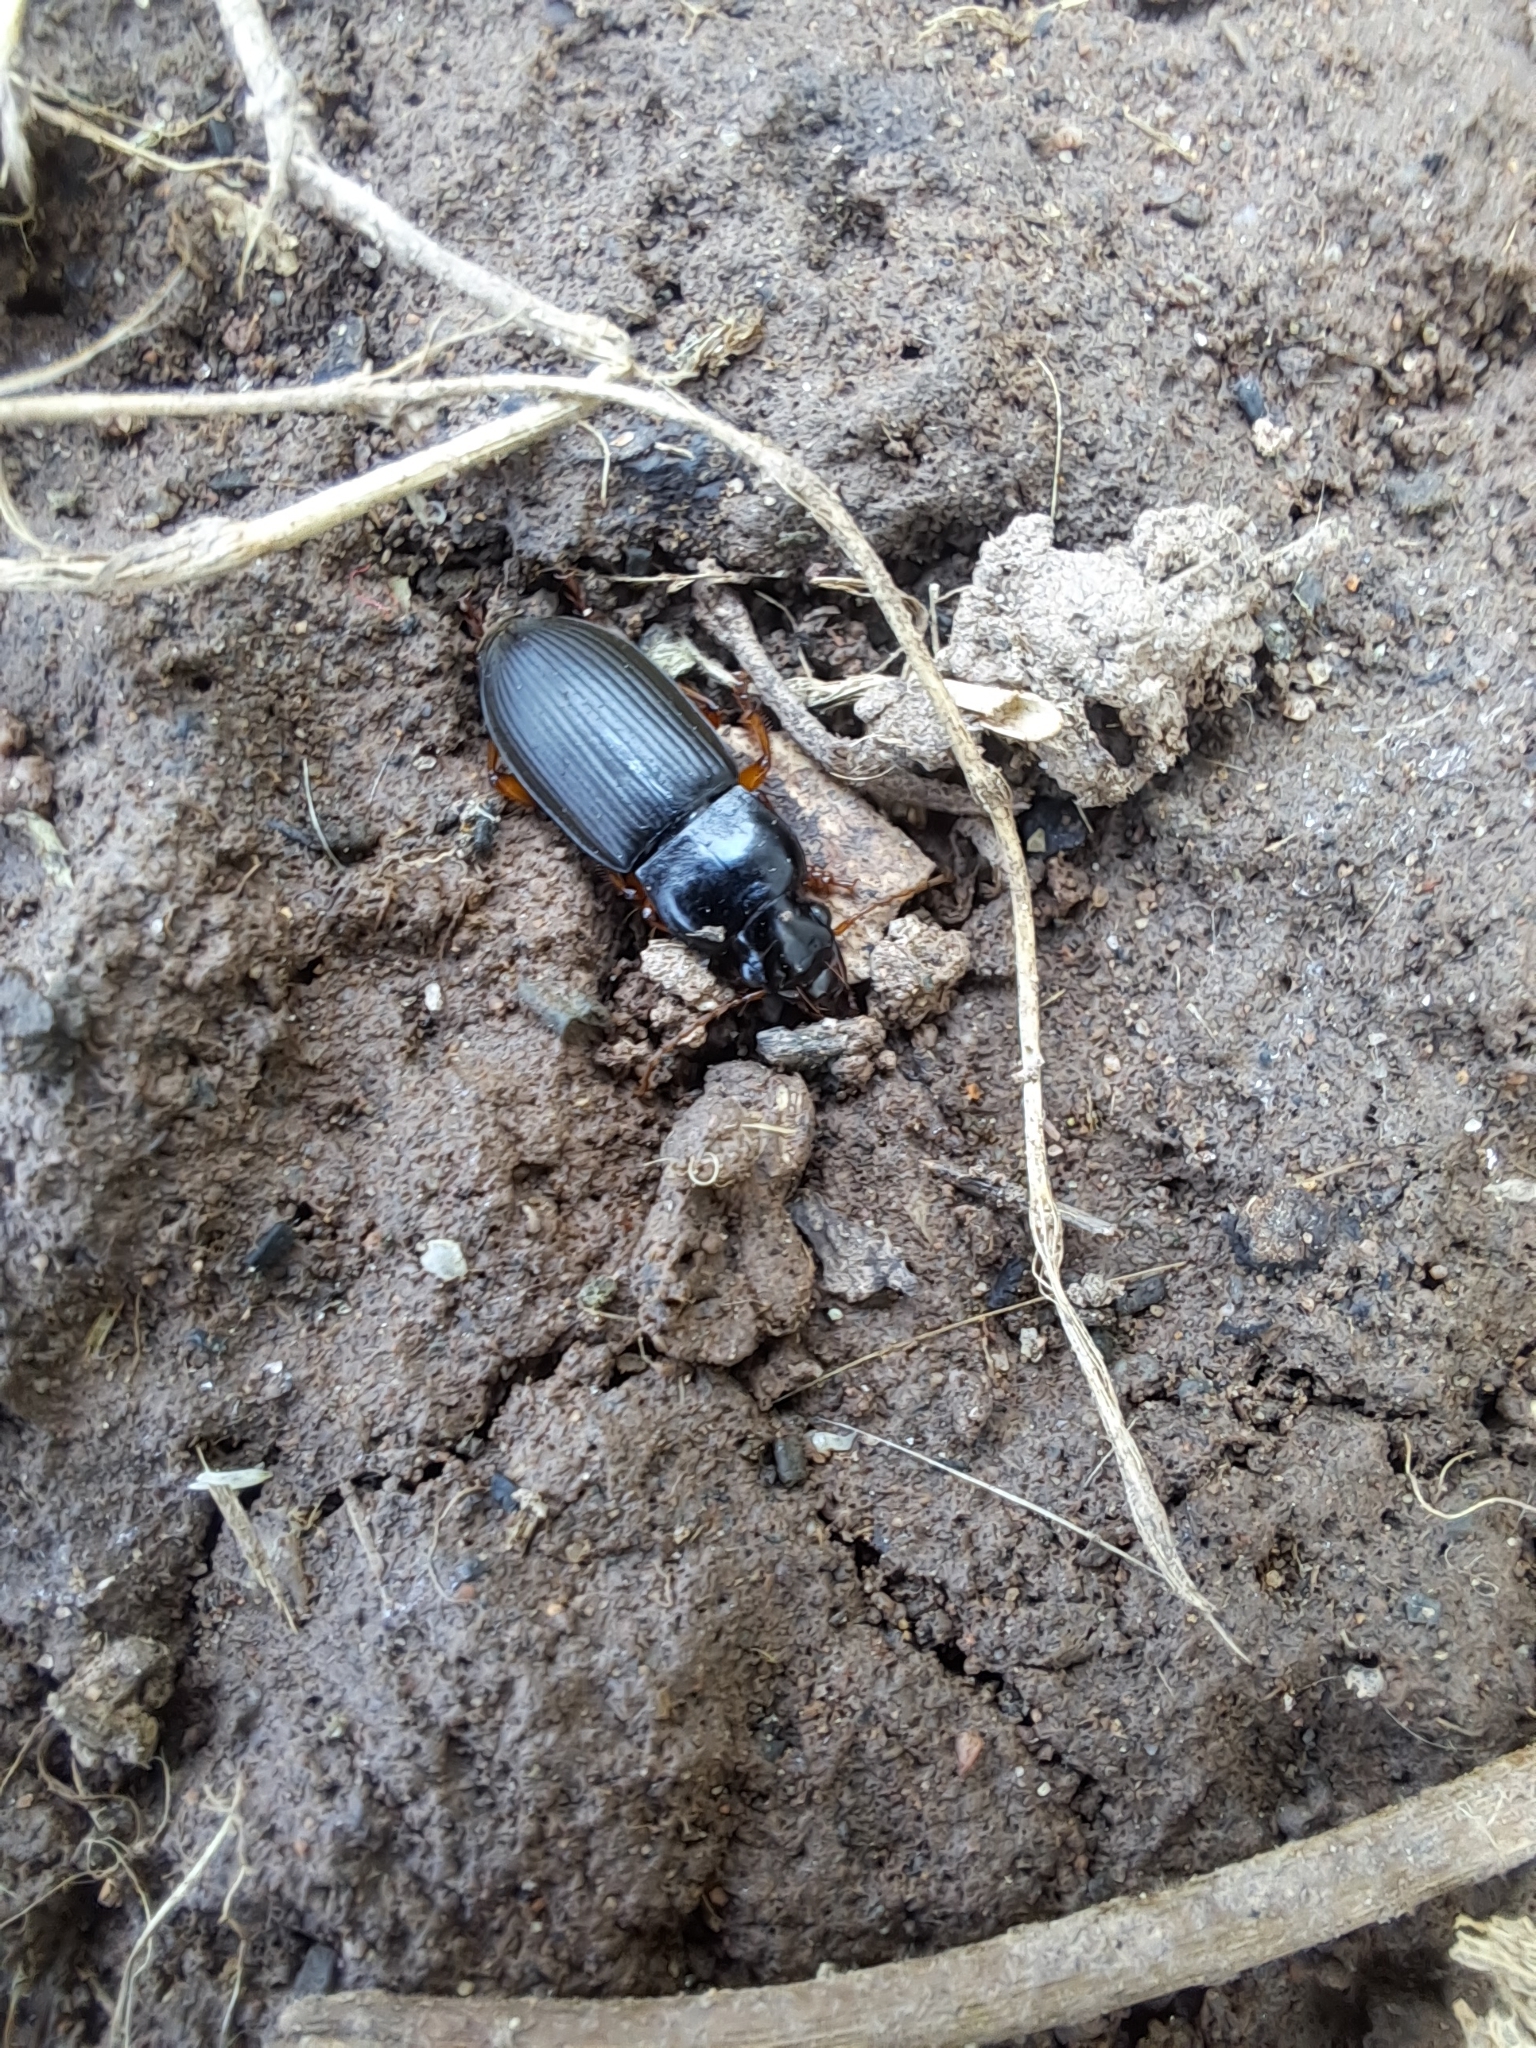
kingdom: Animalia
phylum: Arthropoda
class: Insecta
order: Coleoptera
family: Carabidae
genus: Harpalus
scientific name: Harpalus rufipes
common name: Strawberry harp ground beetle
